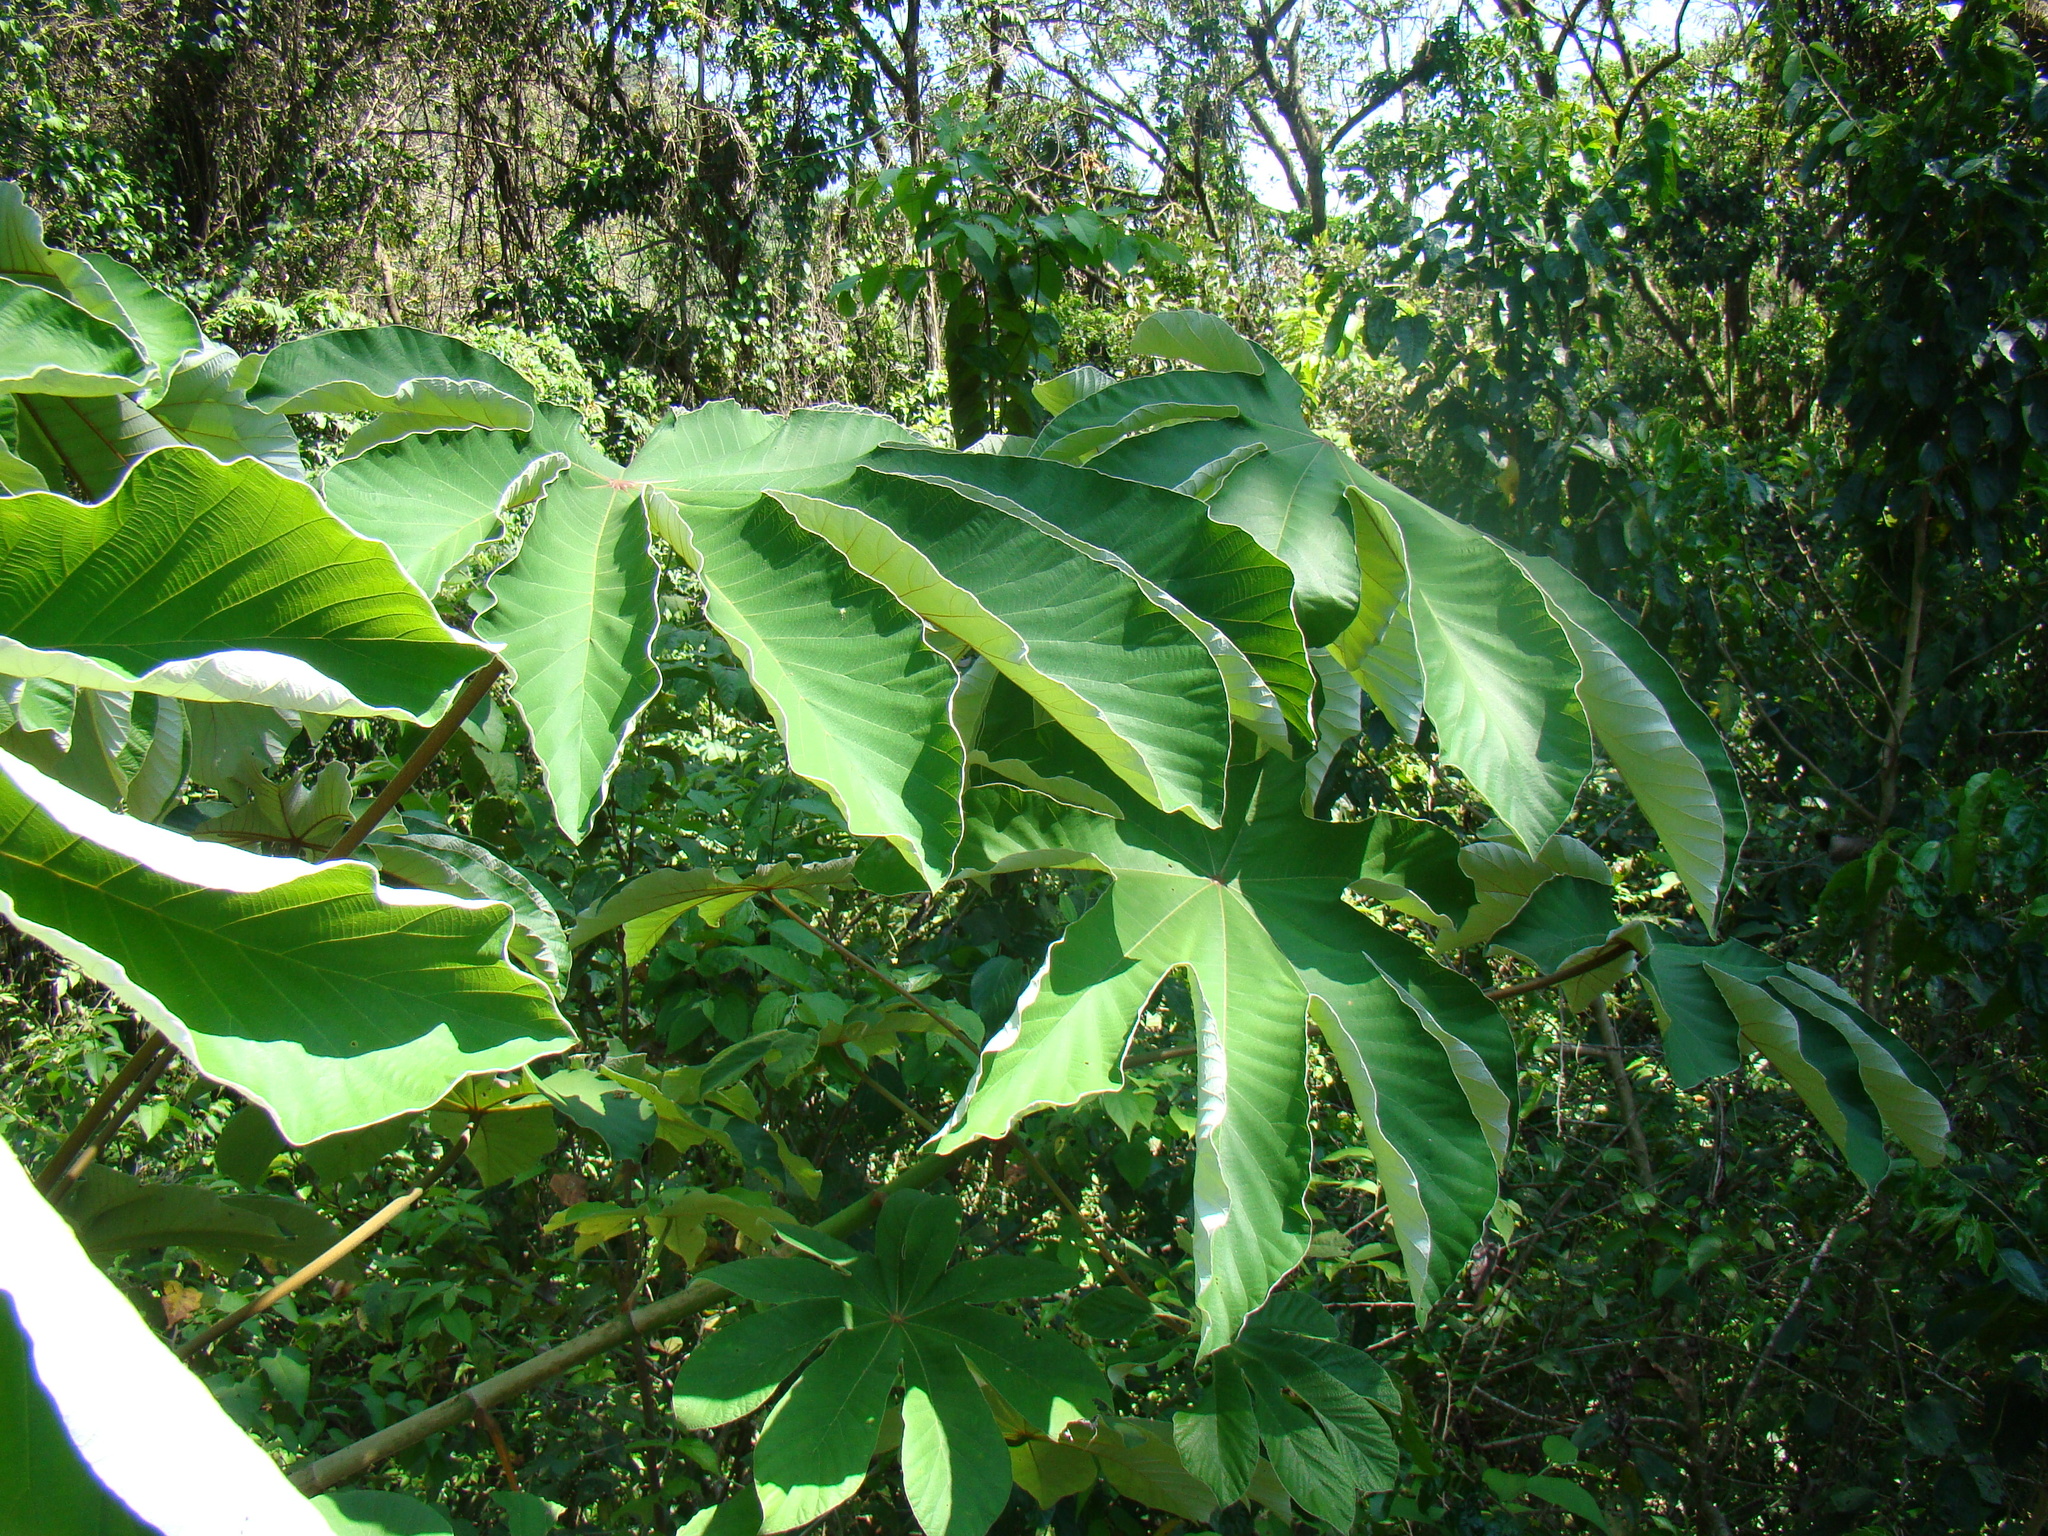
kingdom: Plantae
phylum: Tracheophyta
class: Magnoliopsida
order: Rosales
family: Urticaceae
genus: Cecropia
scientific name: Cecropia peltata
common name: Trumpet-tree
